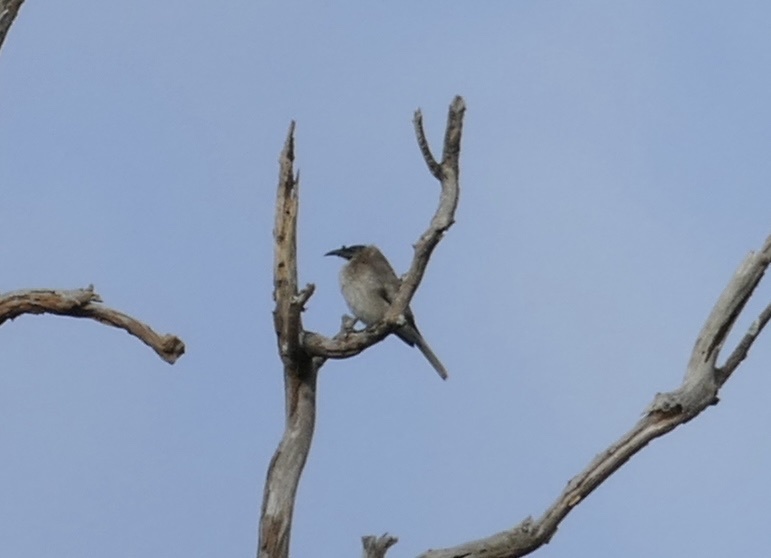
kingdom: Animalia
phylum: Chordata
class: Aves
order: Passeriformes
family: Meliphagidae
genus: Philemon
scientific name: Philemon corniculatus
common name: Noisy friarbird
